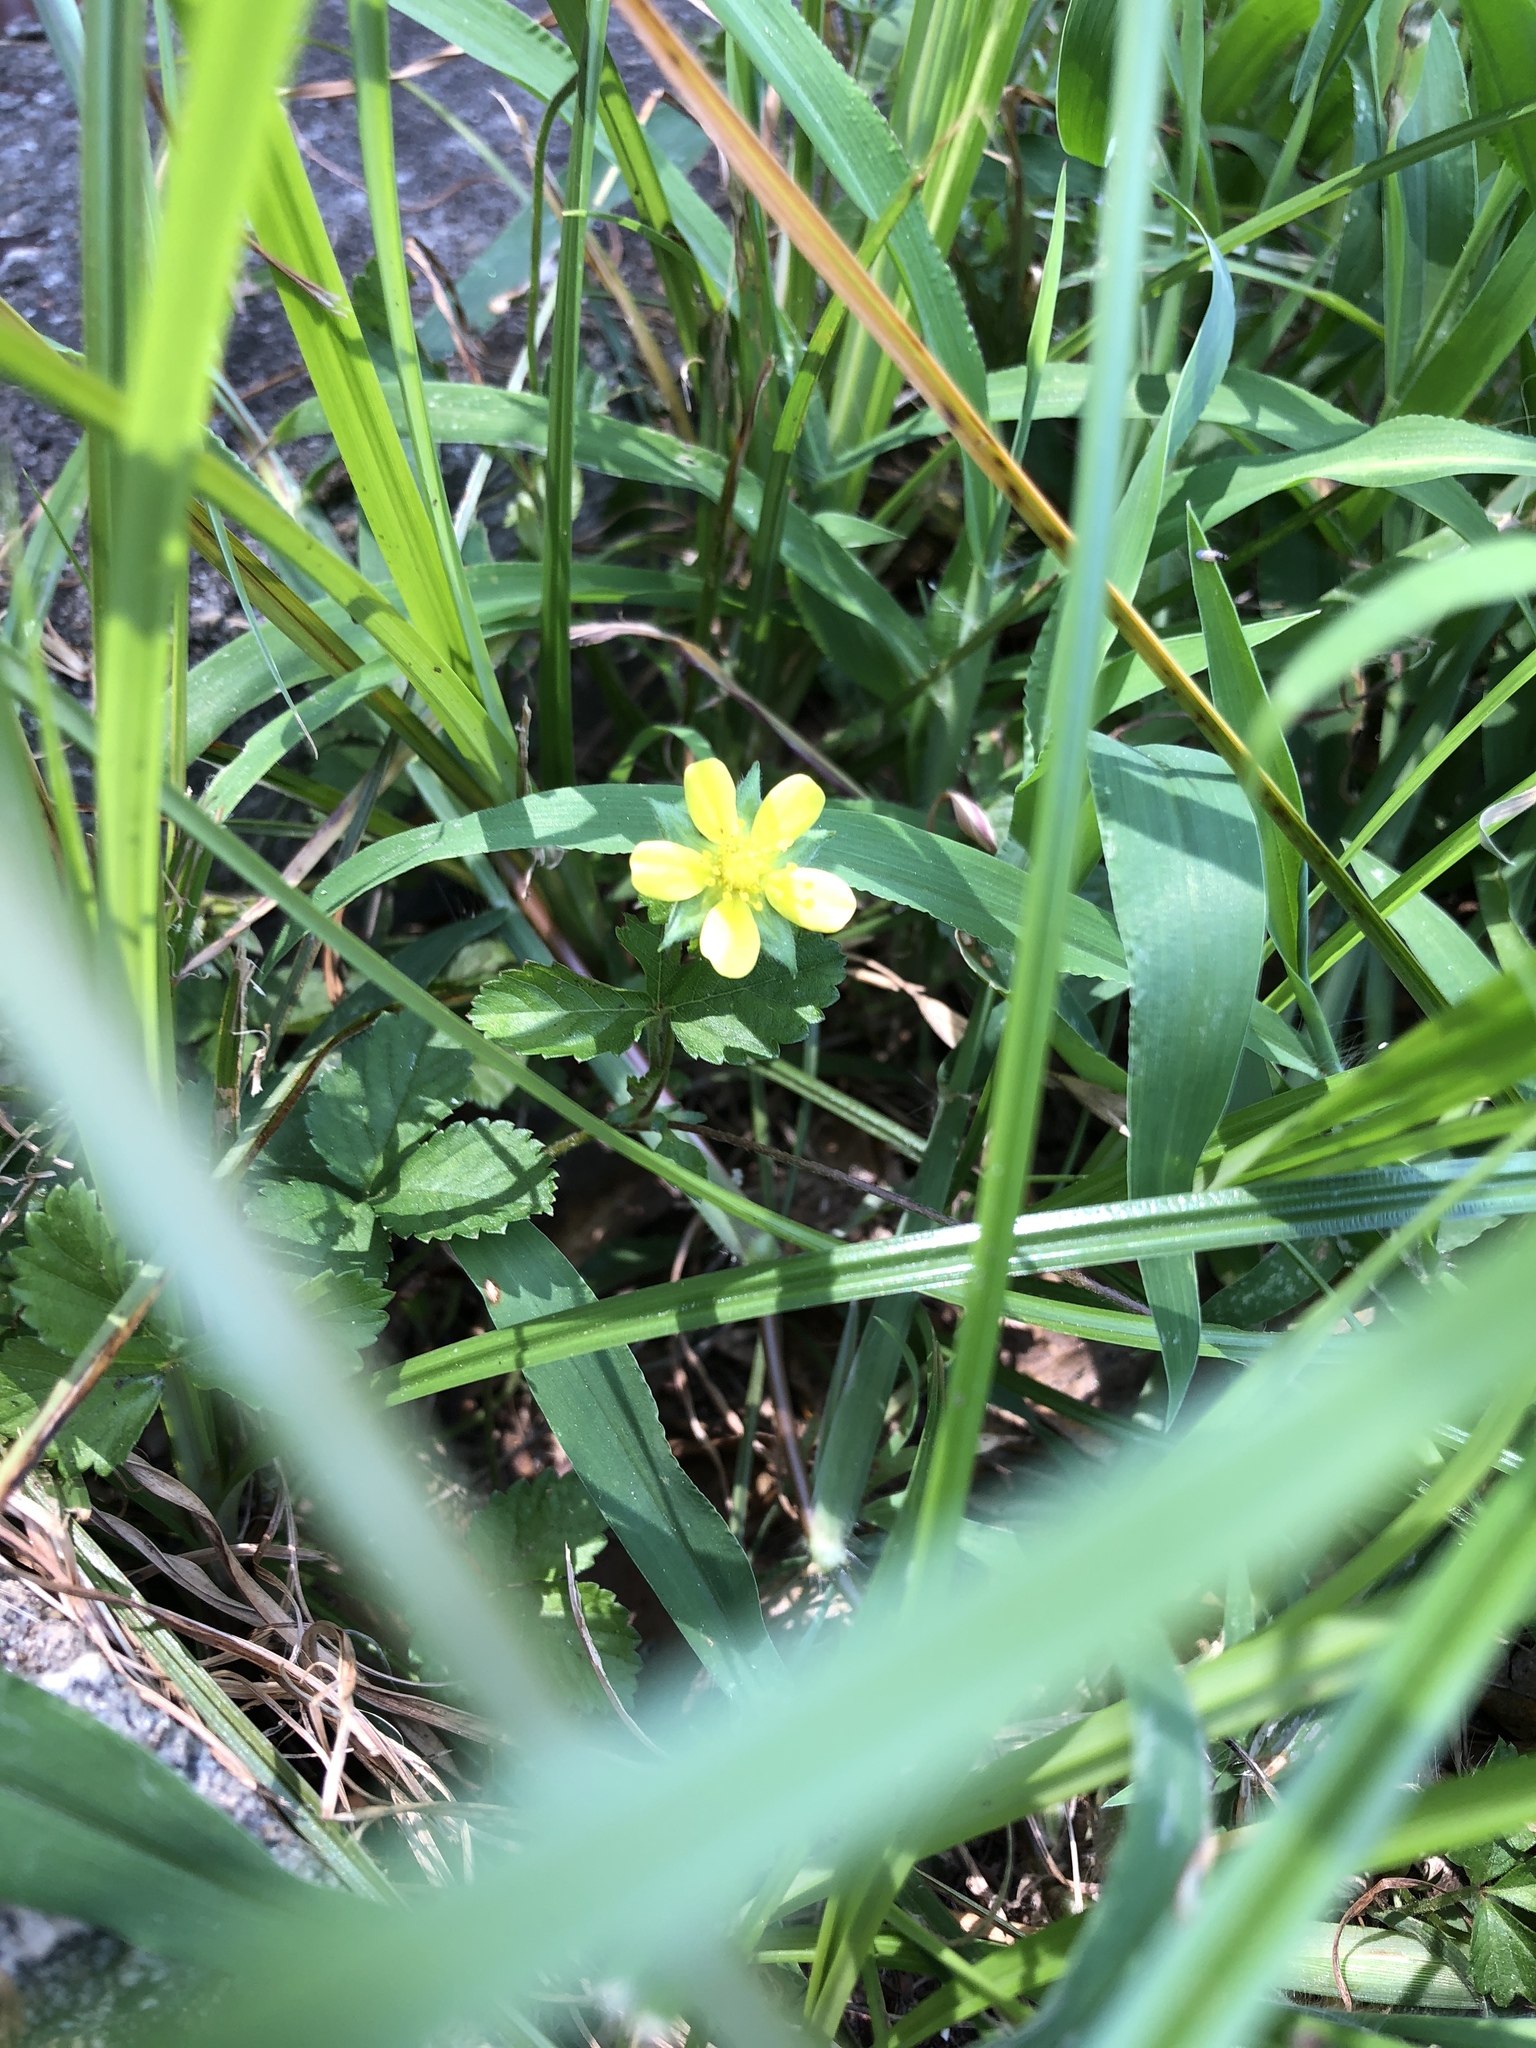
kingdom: Plantae
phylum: Tracheophyta
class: Magnoliopsida
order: Rosales
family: Rosaceae
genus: Potentilla
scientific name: Potentilla indica
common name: Yellow-flowered strawberry
